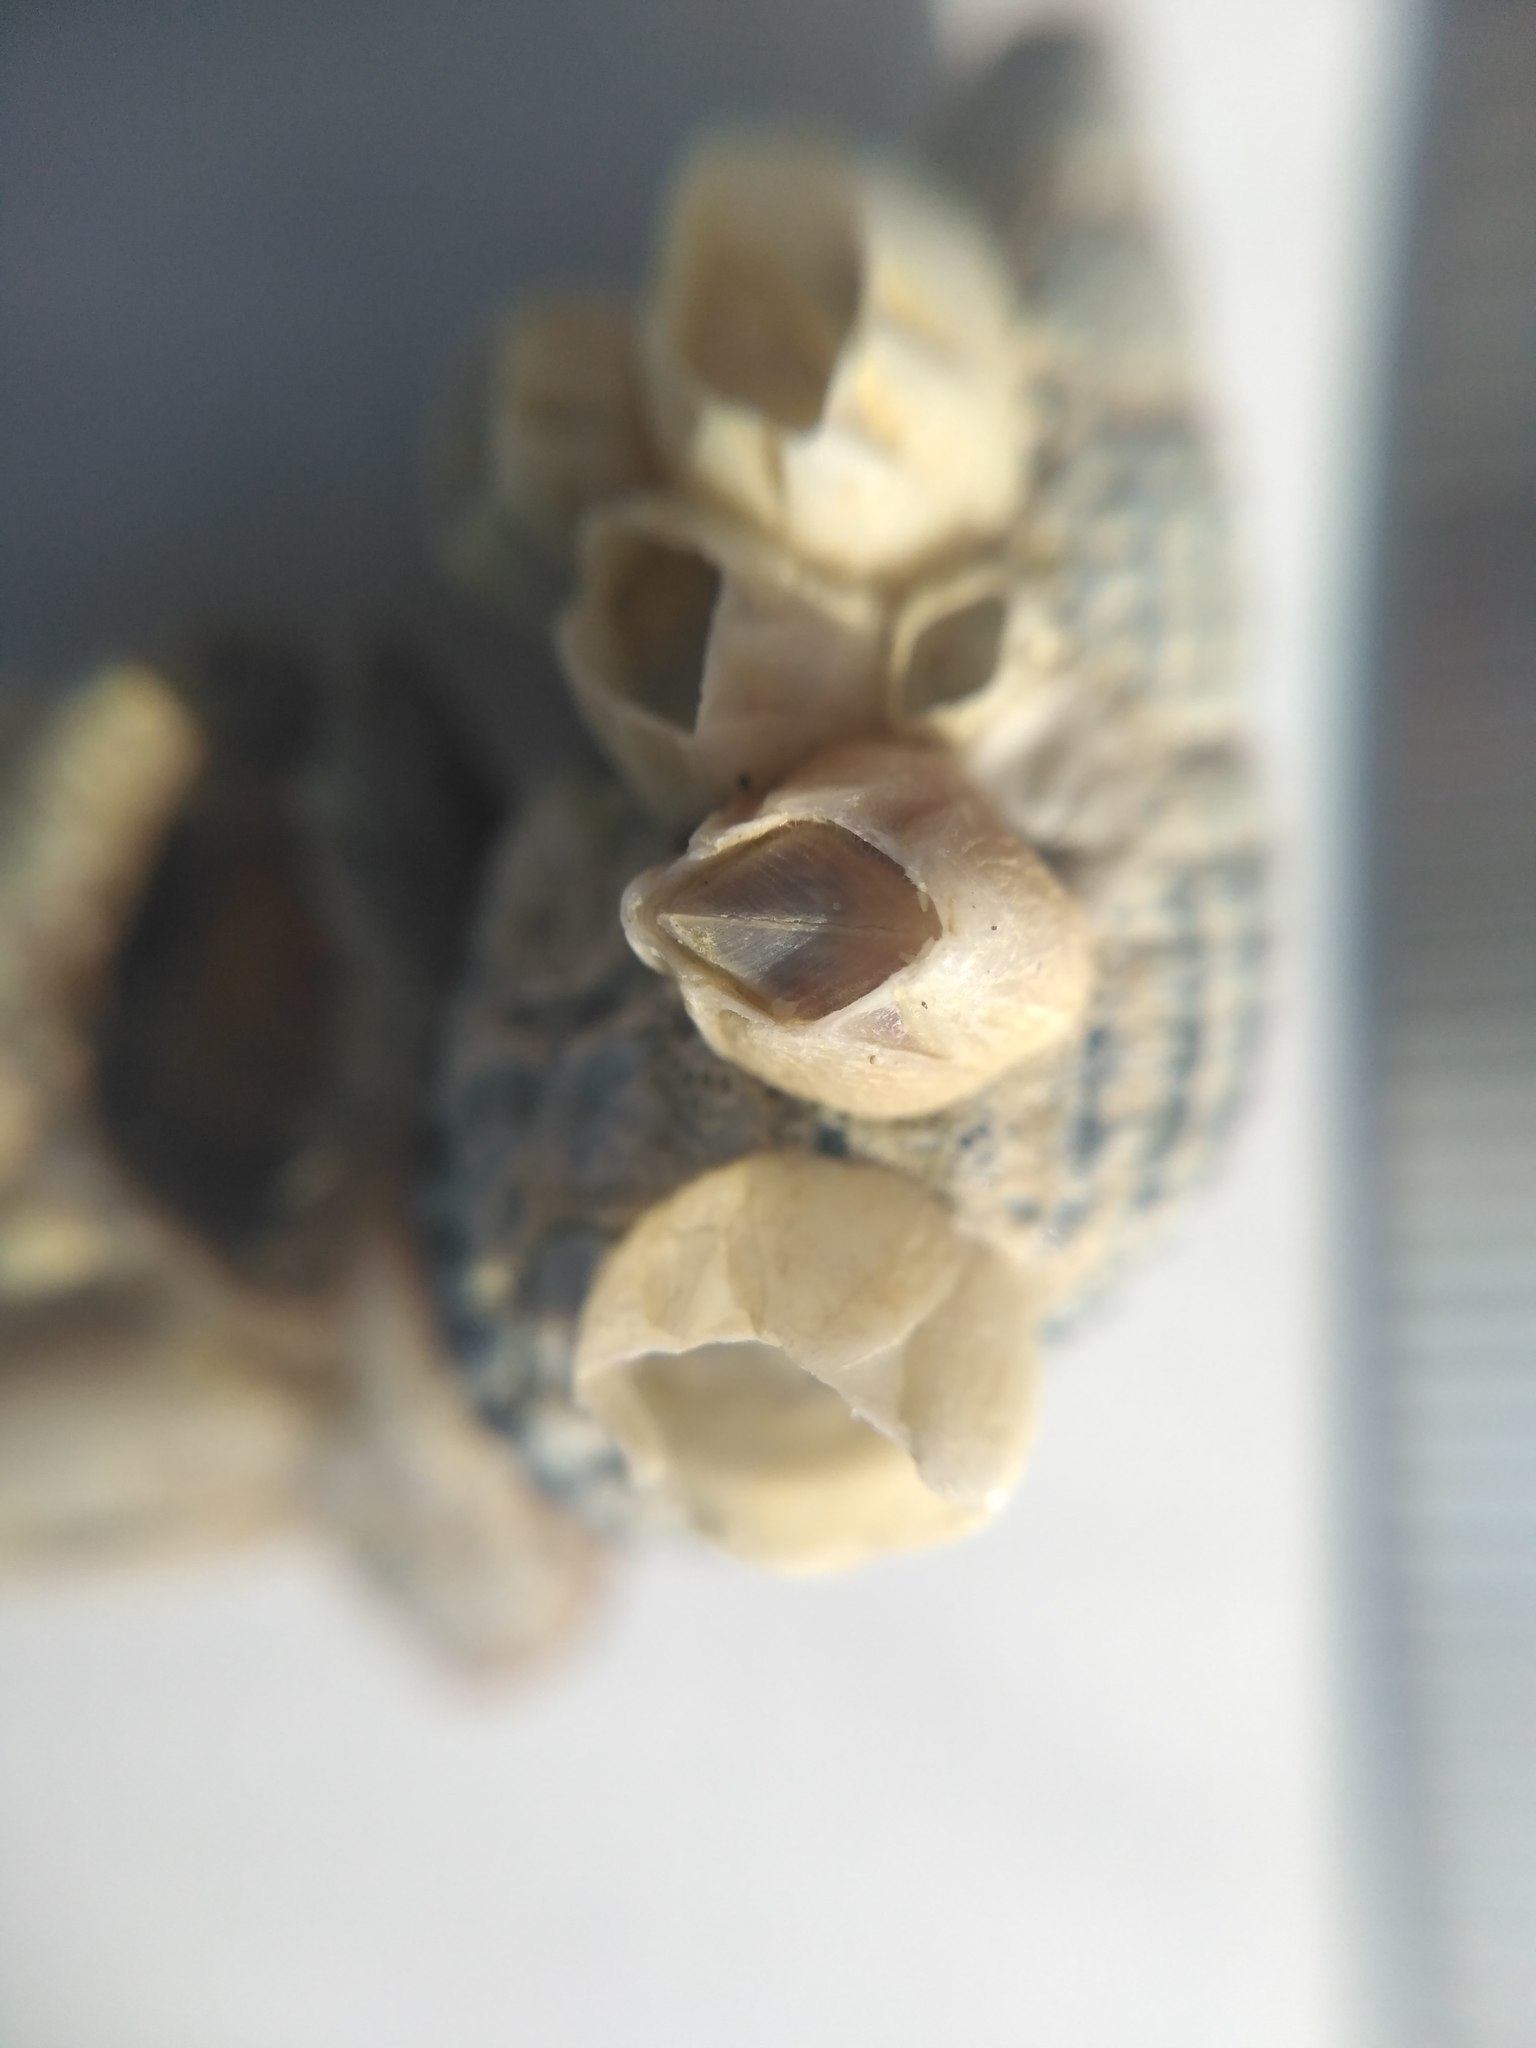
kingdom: Animalia
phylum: Arthropoda
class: Maxillopoda
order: Sessilia
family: Balanidae
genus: Amphibalanus
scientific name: Amphibalanus improvisus
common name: Bay barnacle
